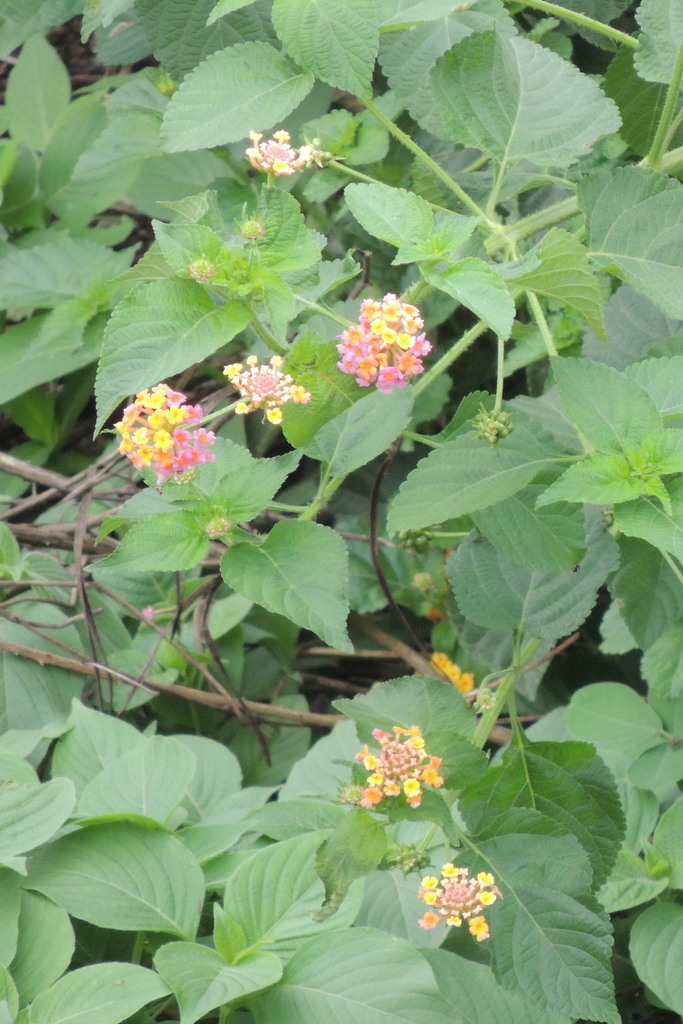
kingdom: Plantae
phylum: Tracheophyta
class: Magnoliopsida
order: Lamiales
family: Verbenaceae
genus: Lantana
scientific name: Lantana camara
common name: Lantana
